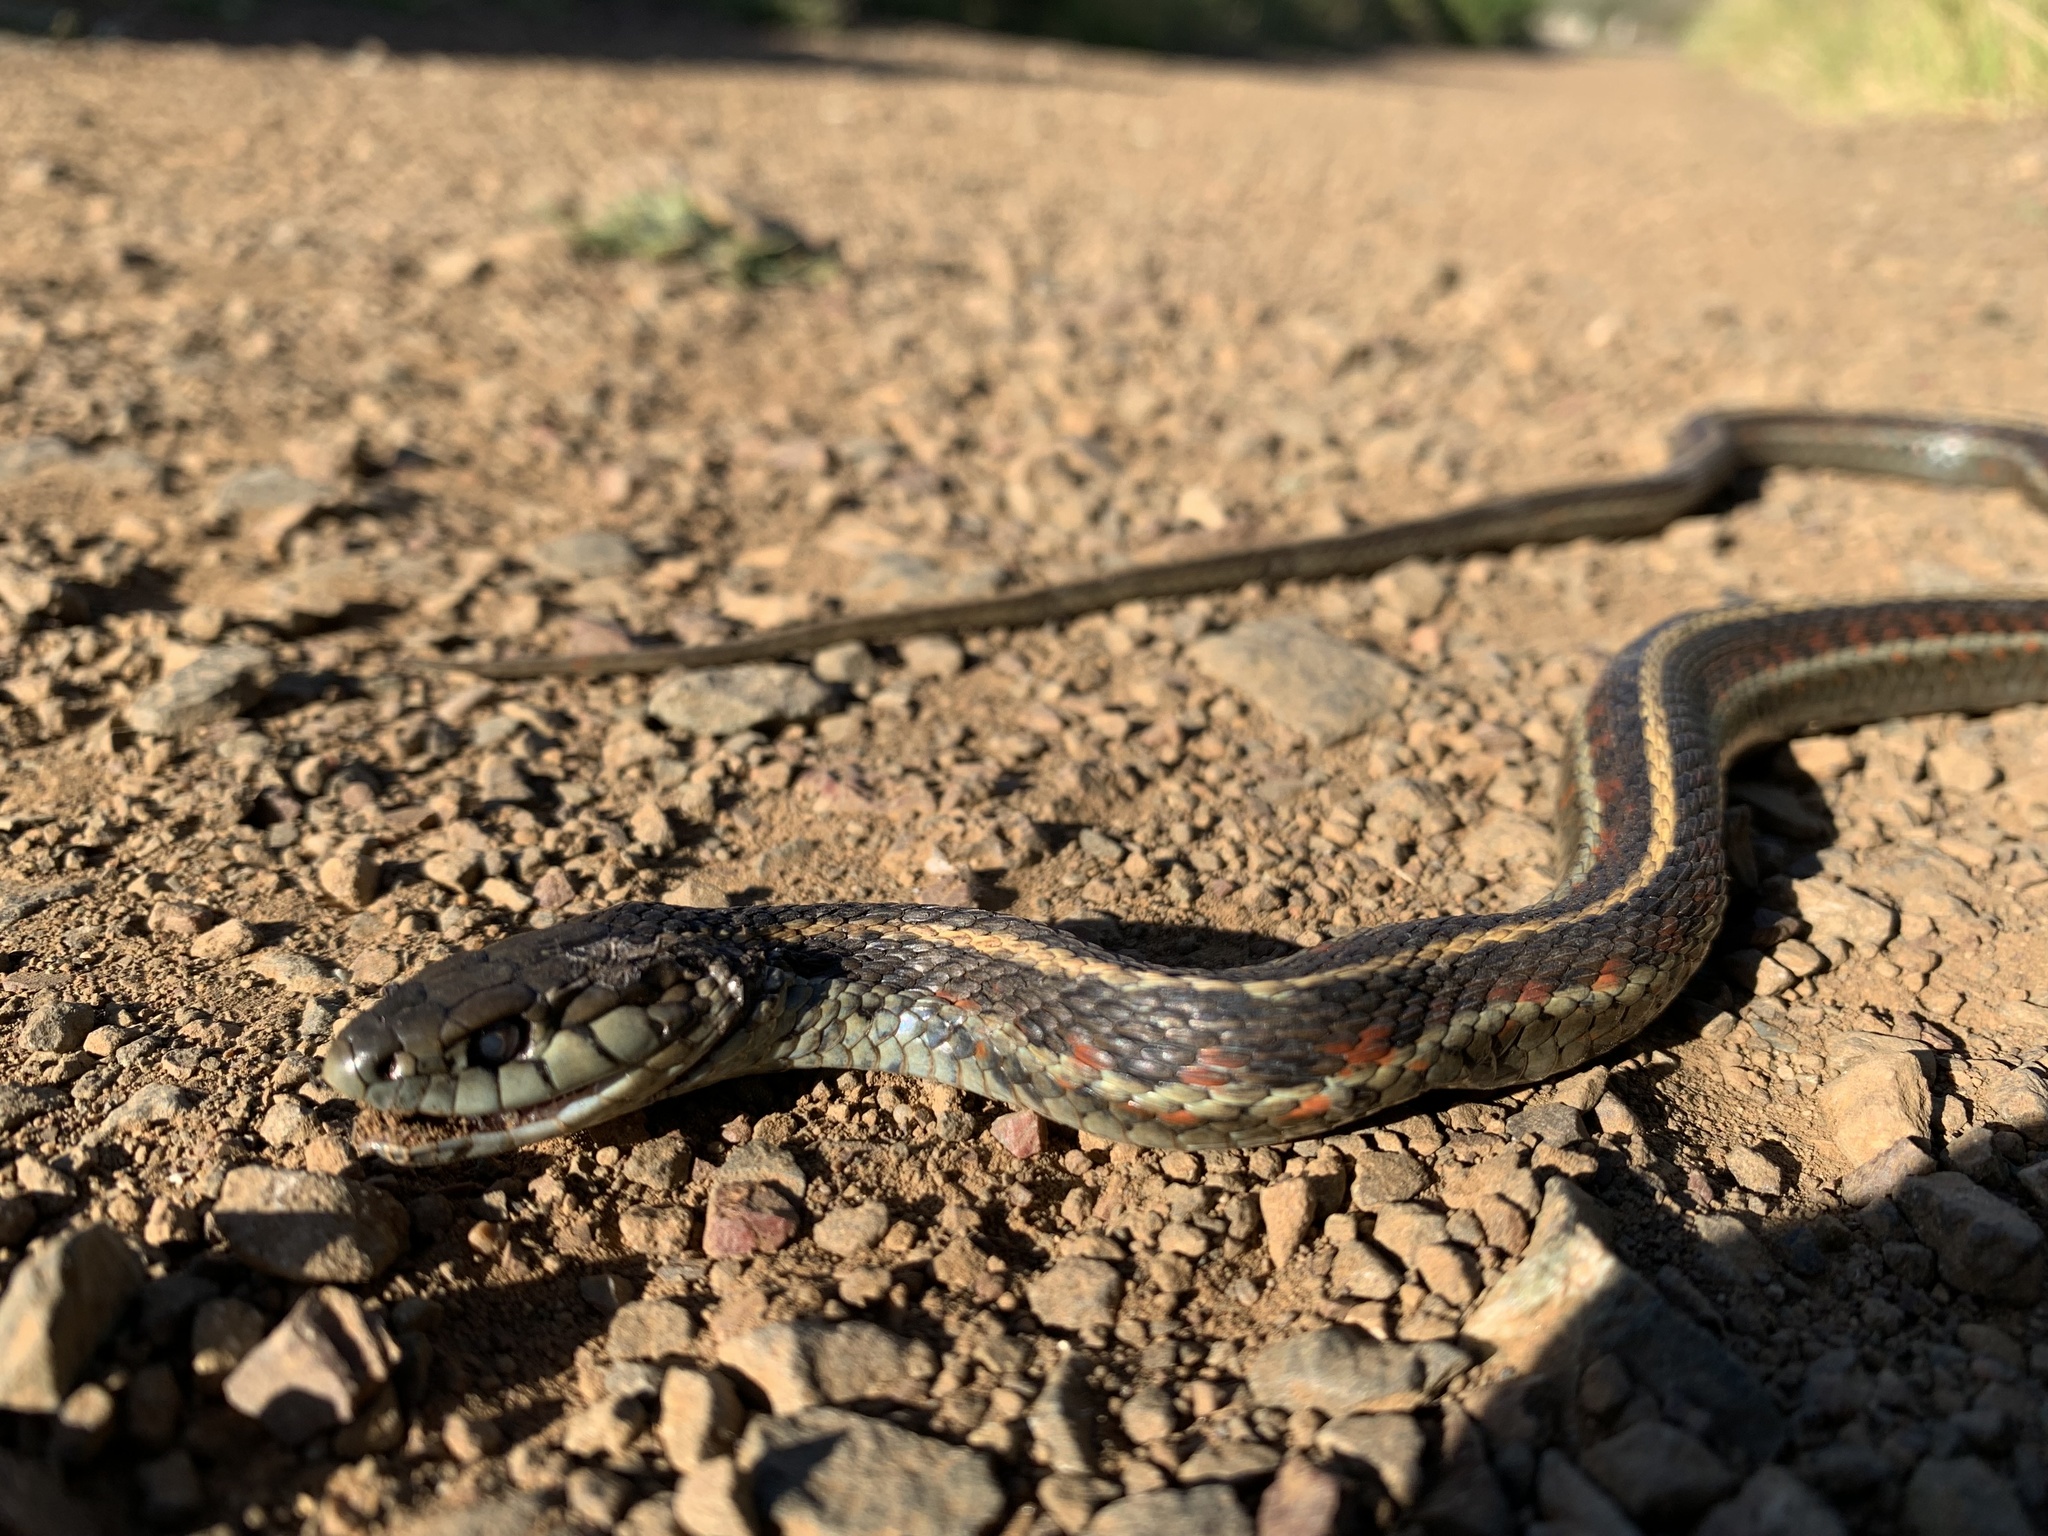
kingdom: Animalia
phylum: Chordata
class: Squamata
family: Colubridae
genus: Thamnophis
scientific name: Thamnophis elegans
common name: Western terrestrial garter snake
